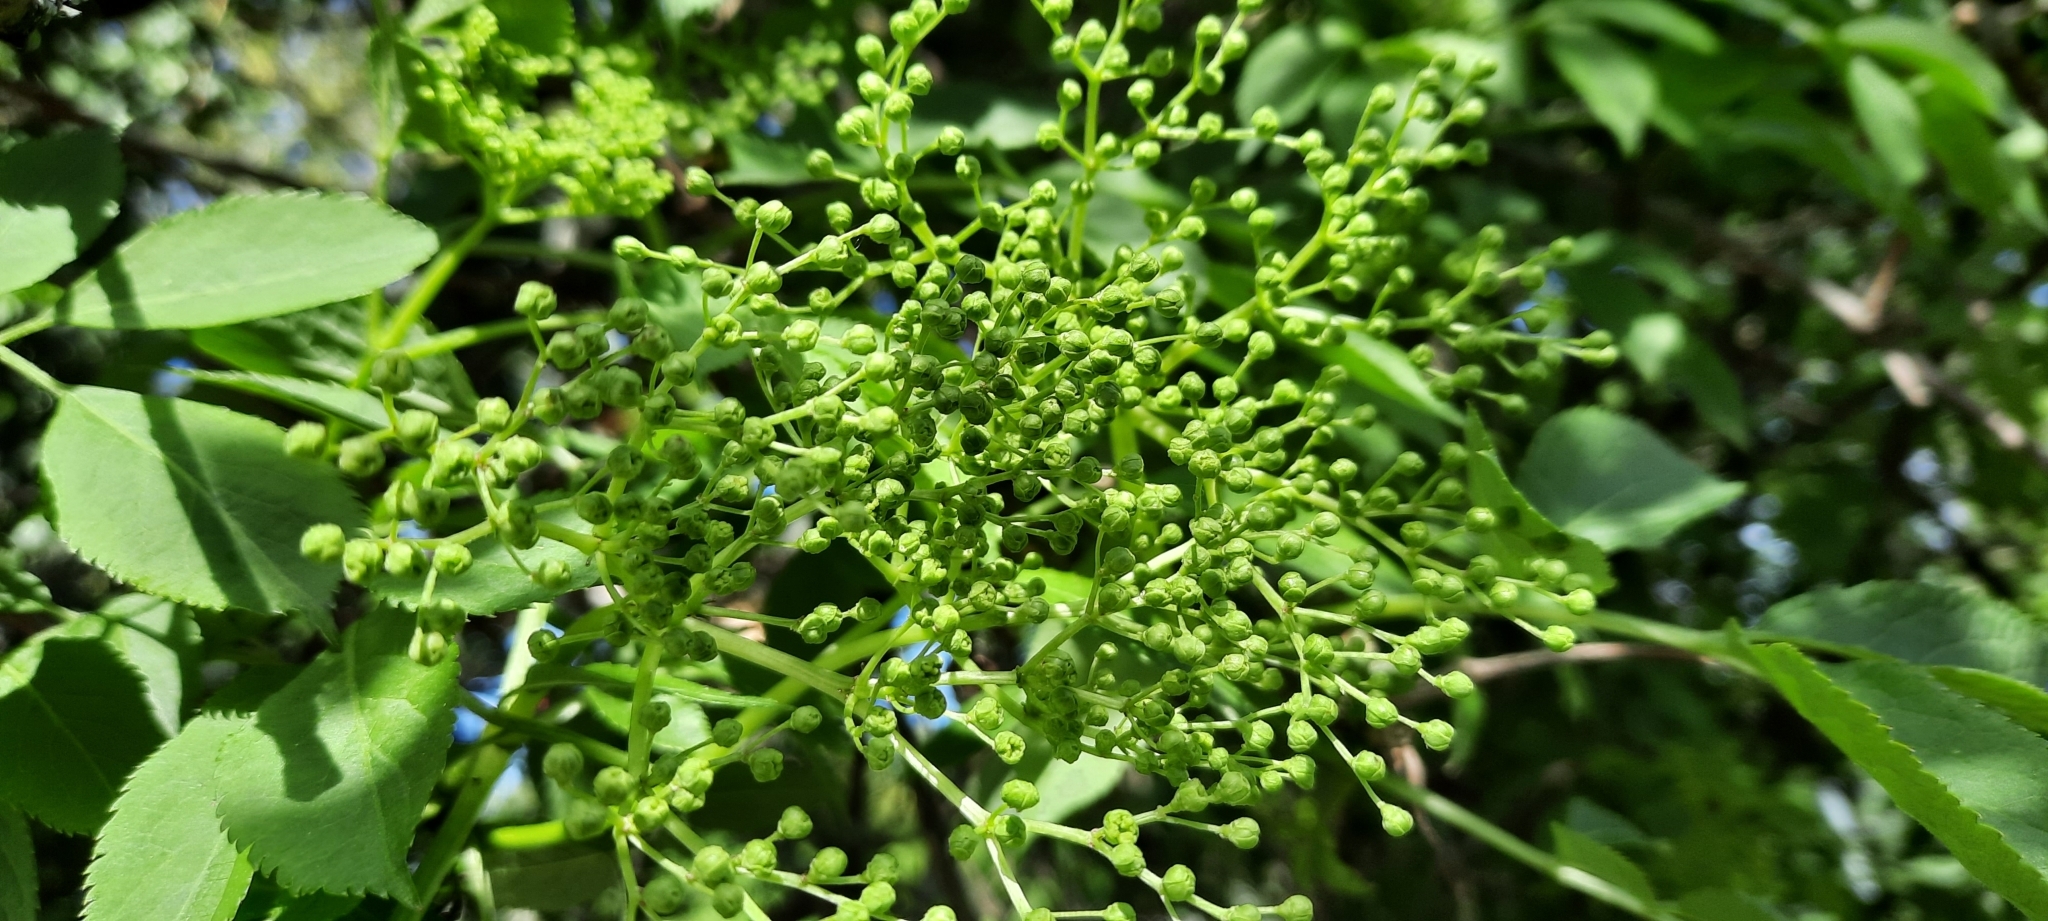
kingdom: Plantae
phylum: Tracheophyta
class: Magnoliopsida
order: Dipsacales
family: Viburnaceae
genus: Sambucus
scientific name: Sambucus nigra
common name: Elder
